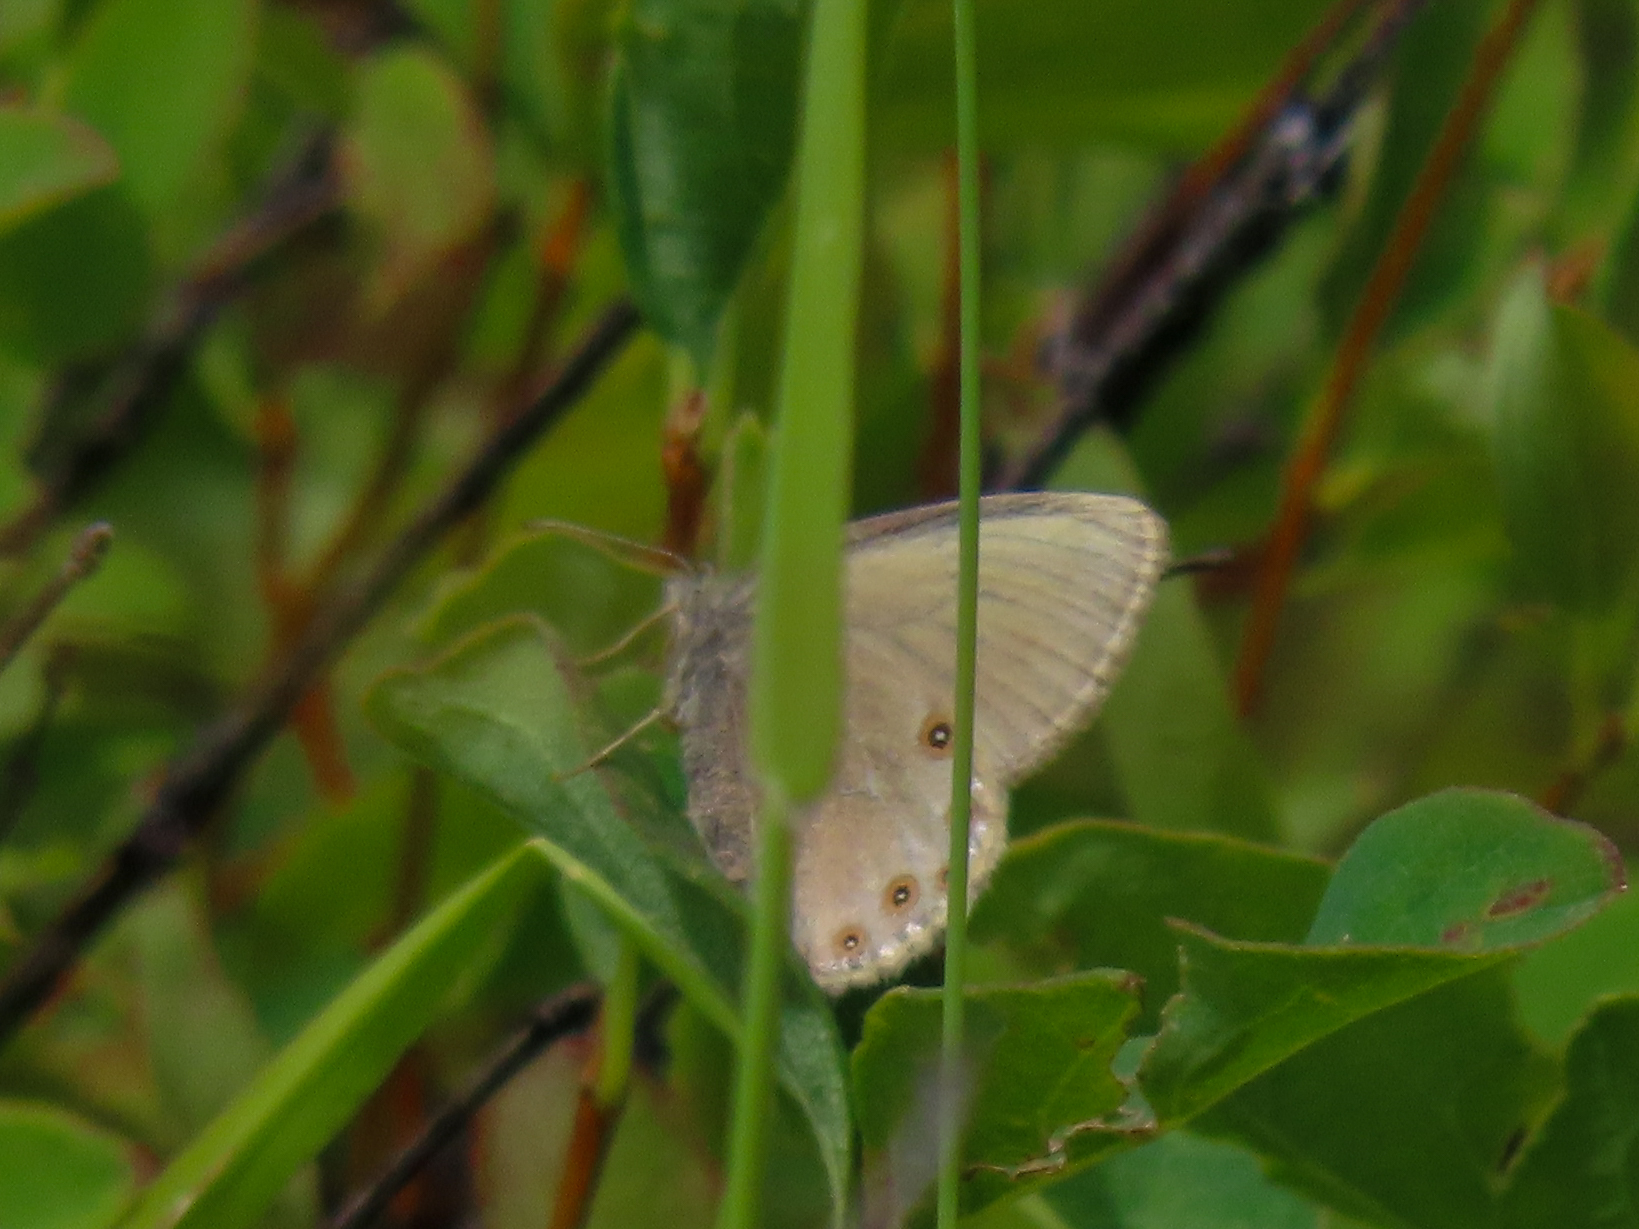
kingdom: Animalia
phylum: Arthropoda
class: Insecta
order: Lepidoptera
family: Nymphalidae
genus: Coenonympha
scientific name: Coenonympha haydeni
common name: Hayden's ringlet
